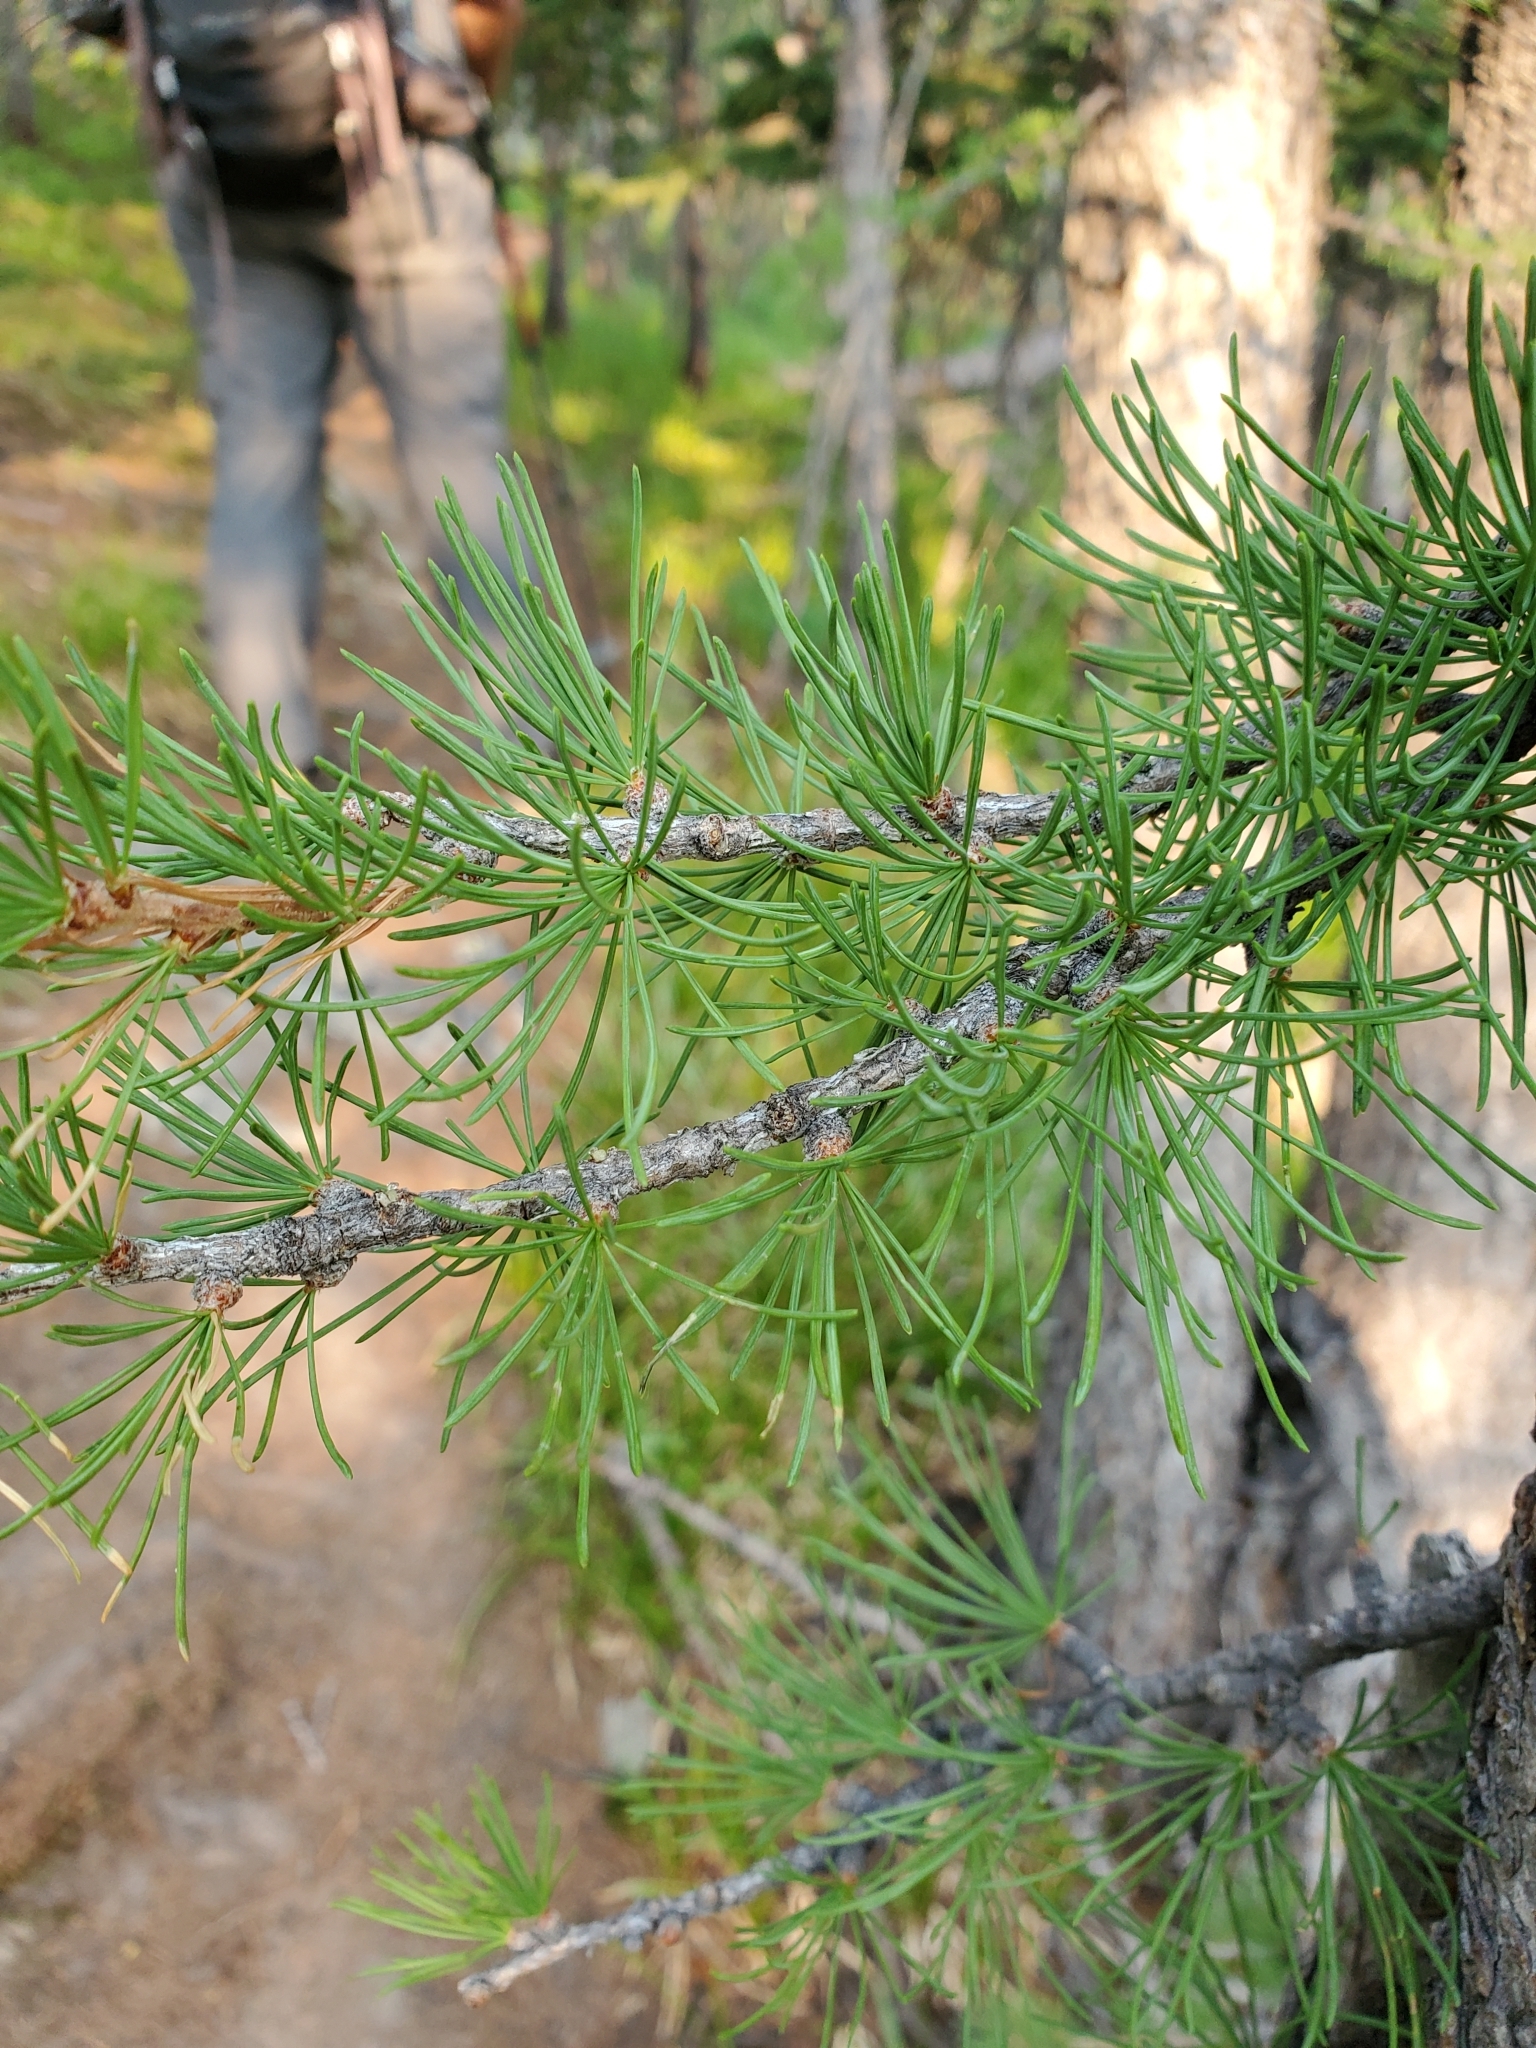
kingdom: Plantae
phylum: Tracheophyta
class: Pinopsida
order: Pinales
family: Pinaceae
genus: Larix
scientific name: Larix lyallii
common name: Alpine larch
